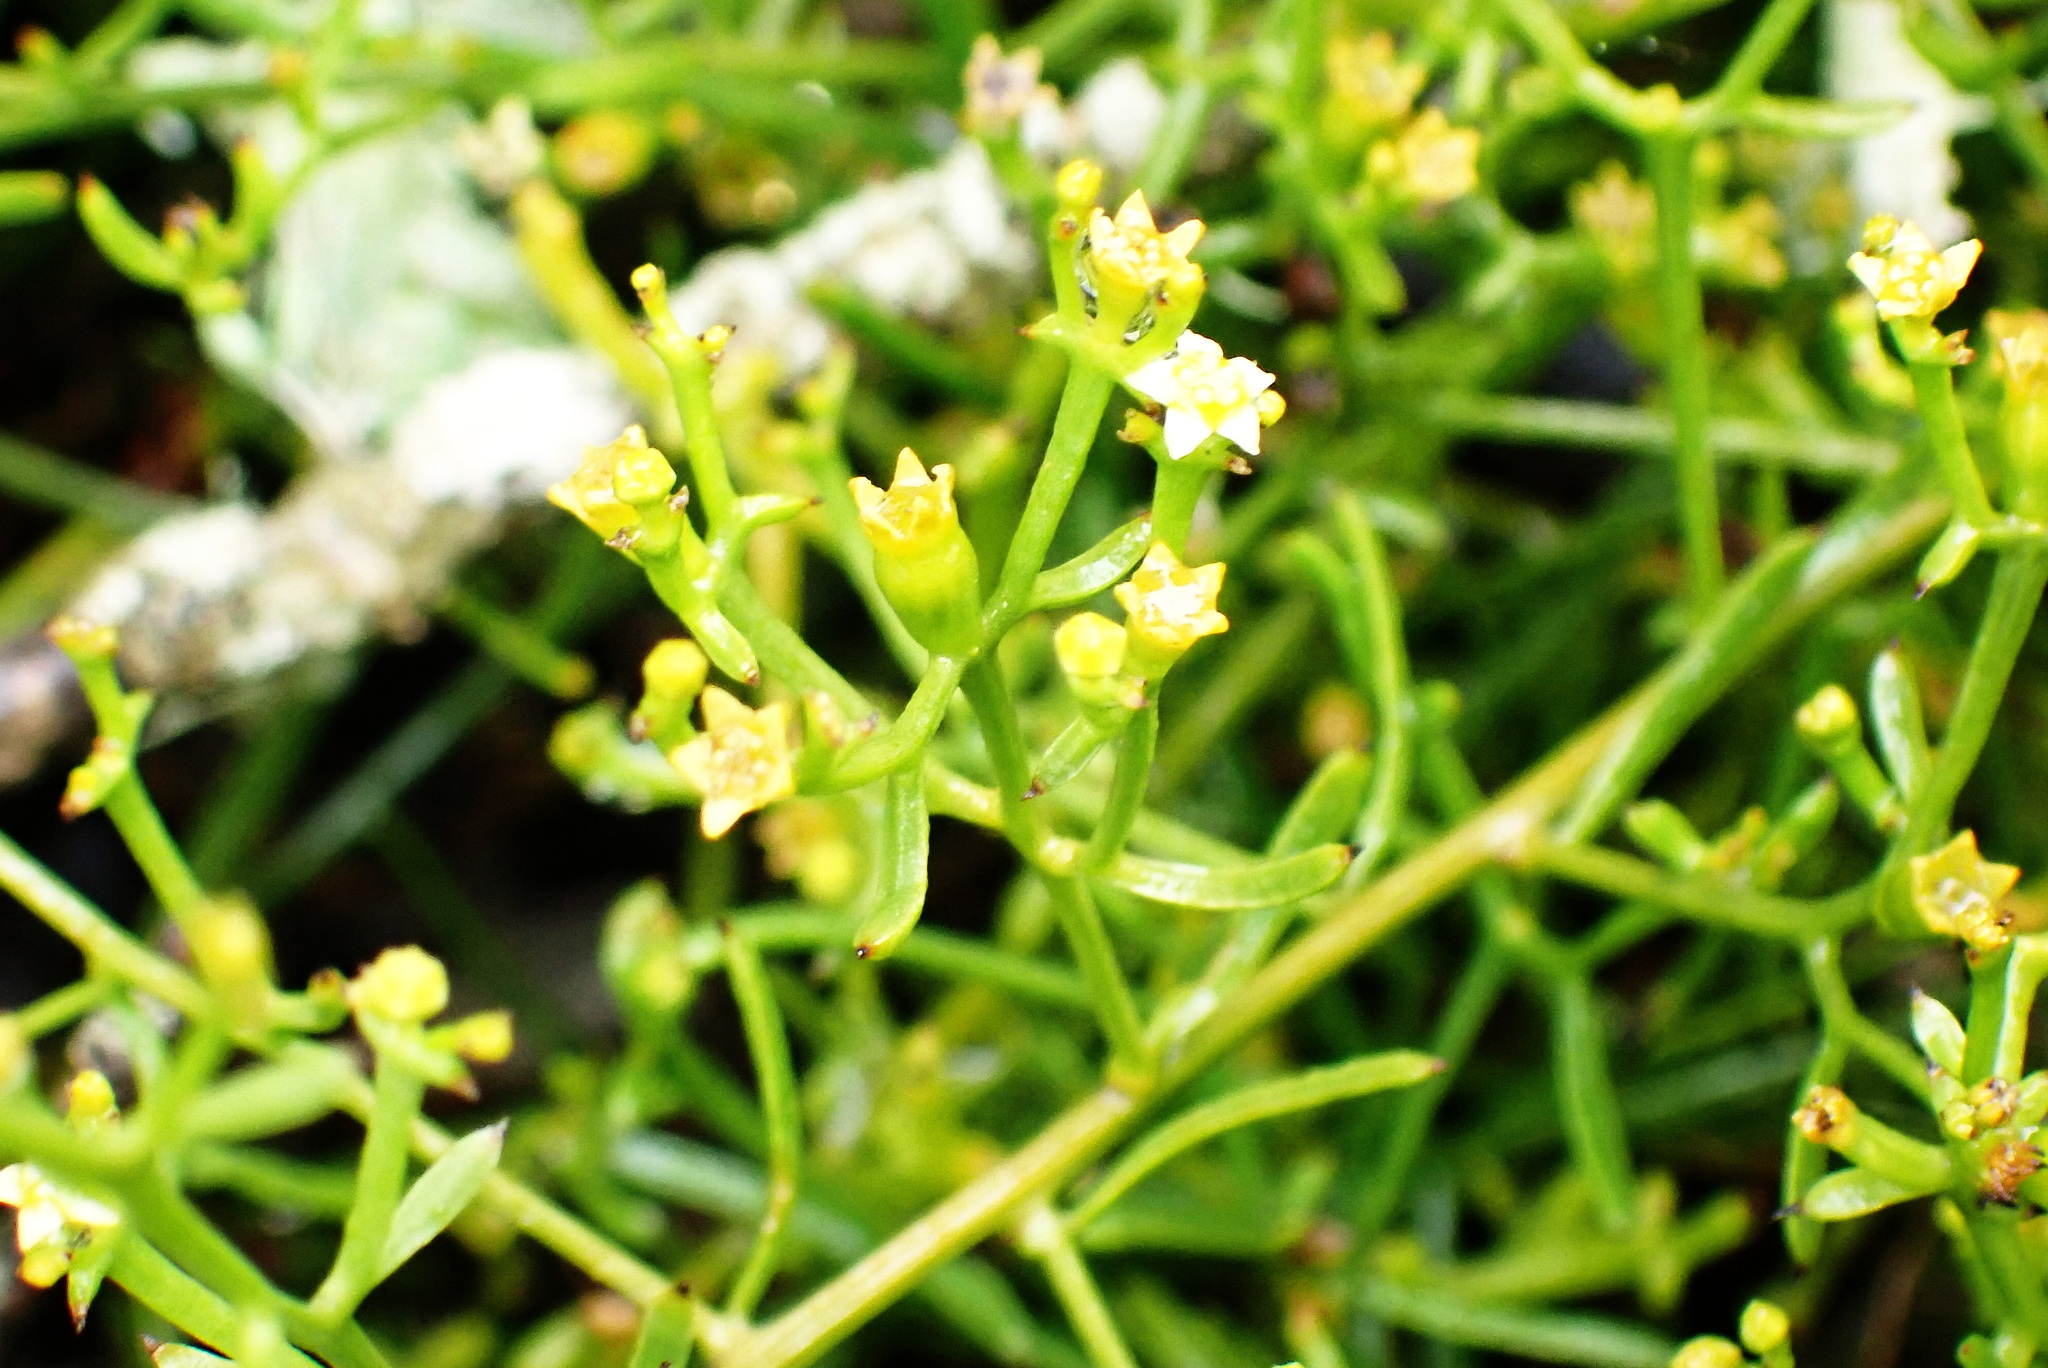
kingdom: Plantae
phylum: Tracheophyta
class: Magnoliopsida
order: Santalales
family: Thesiaceae
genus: Thesium
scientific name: Thesium galioides
